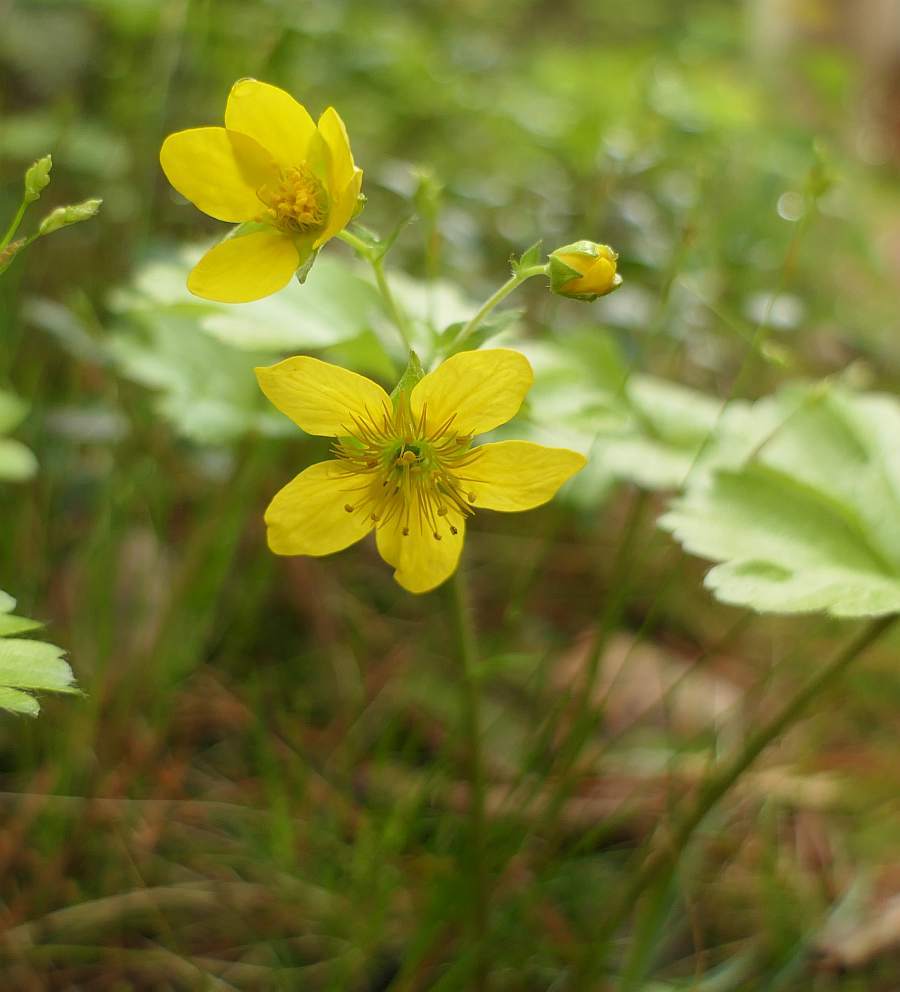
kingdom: Plantae
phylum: Tracheophyta
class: Magnoliopsida
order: Rosales
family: Rosaceae
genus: Geum
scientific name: Geum fragarioides
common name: Appalachian barren strawberry
